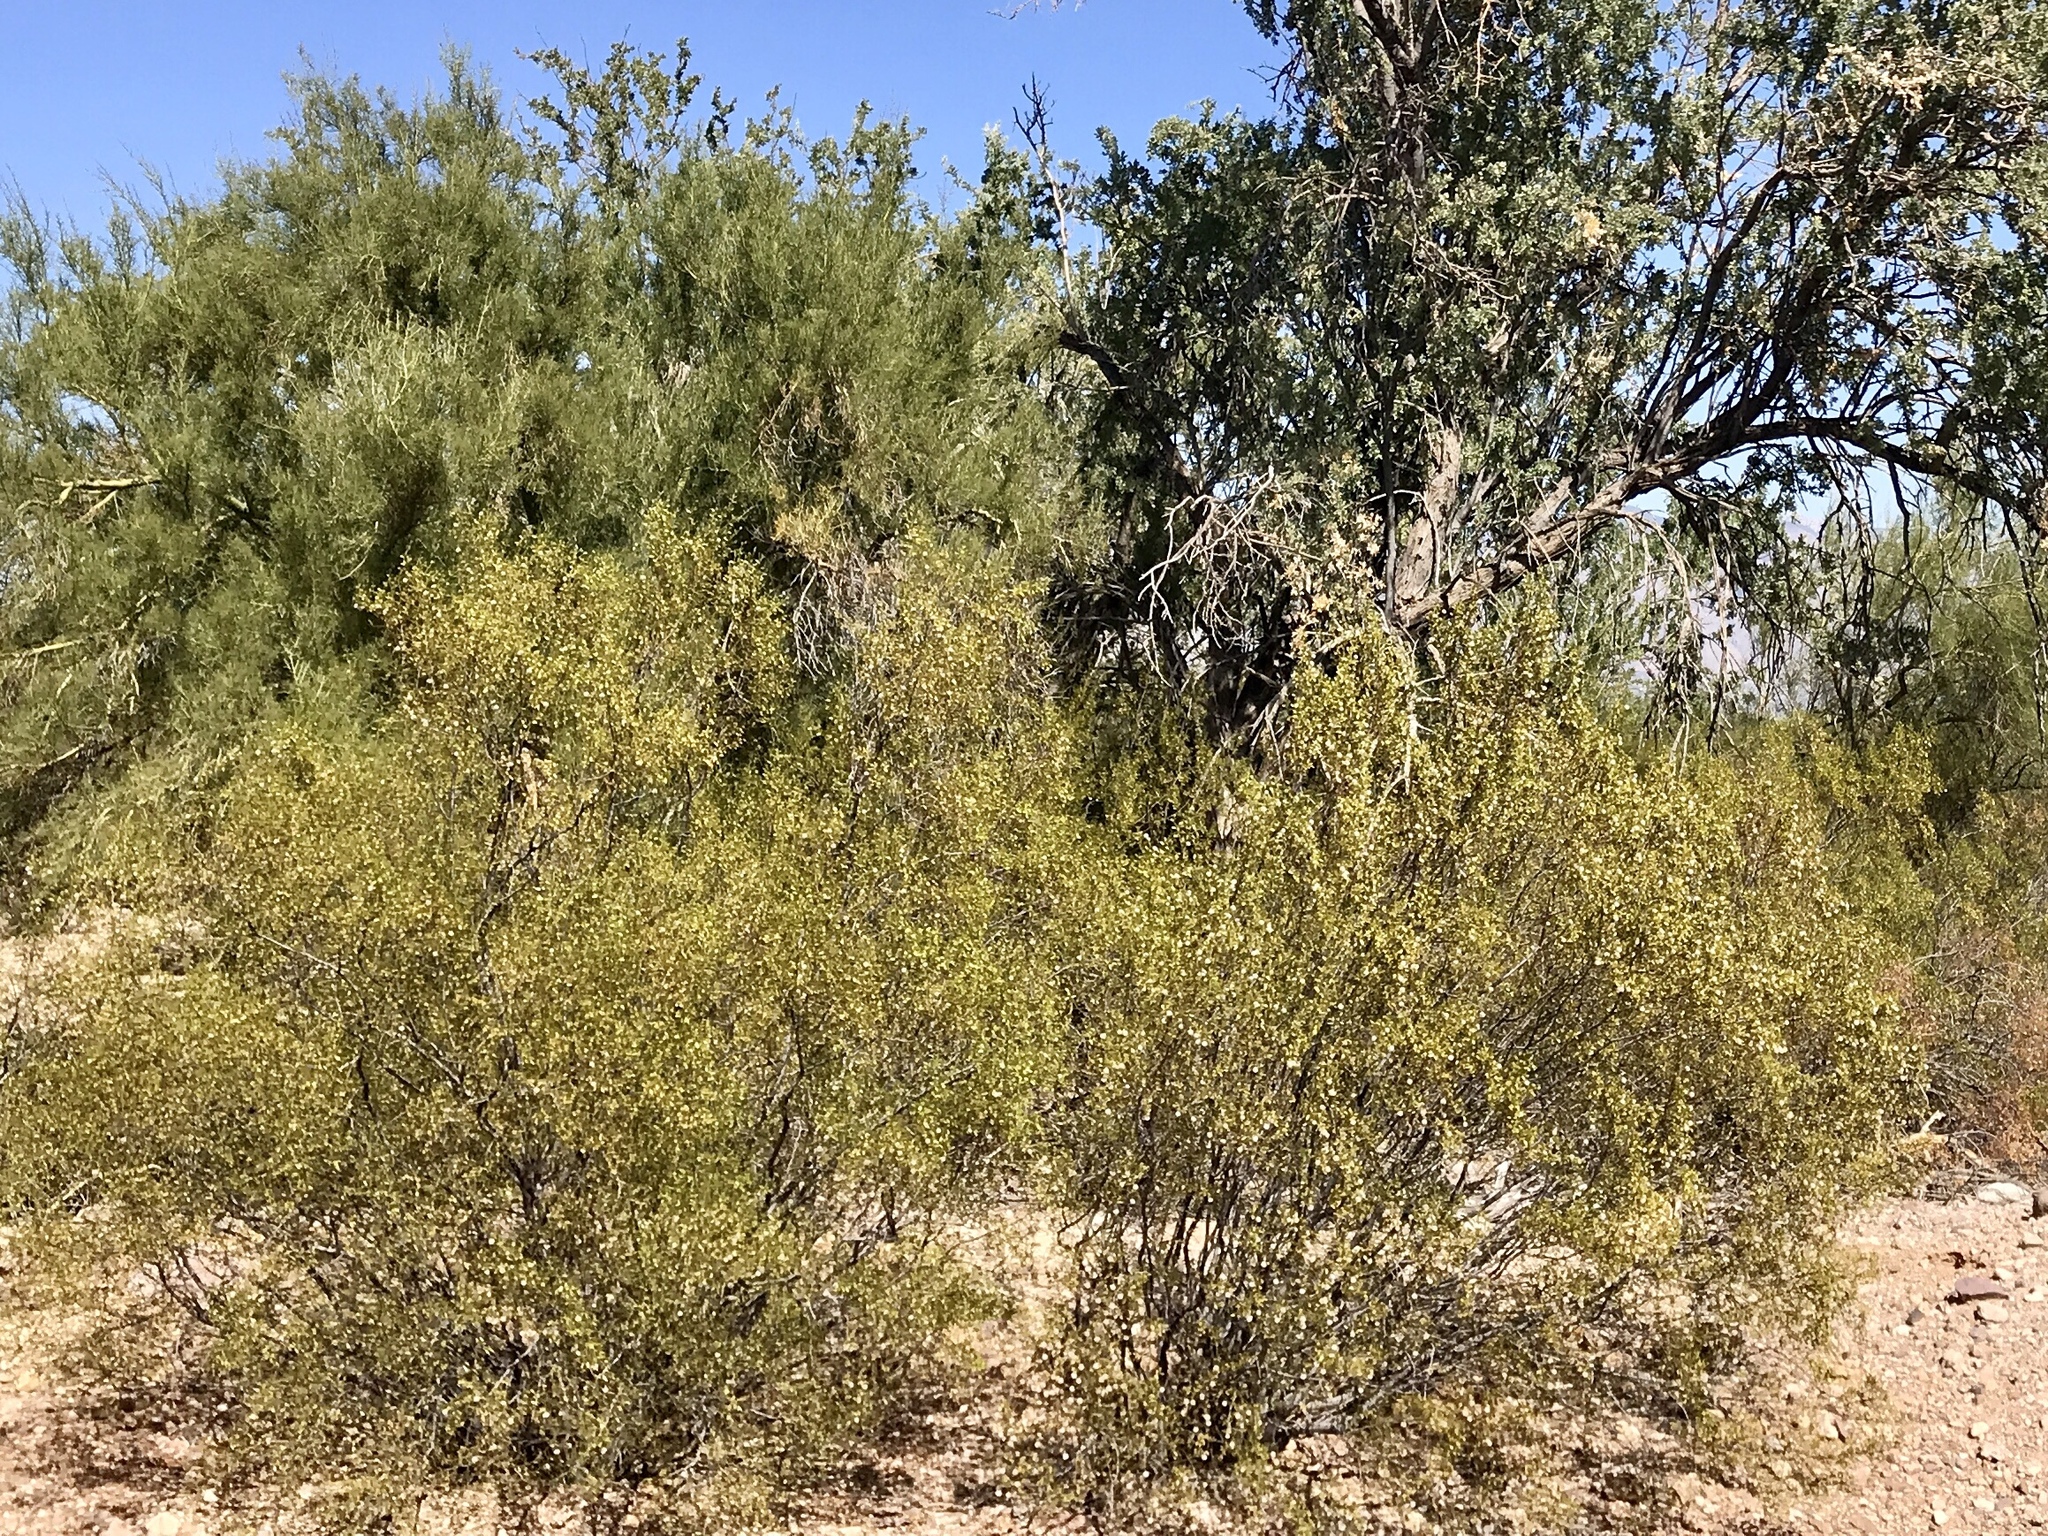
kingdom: Plantae
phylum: Tracheophyta
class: Magnoliopsida
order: Zygophyllales
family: Zygophyllaceae
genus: Larrea
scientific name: Larrea tridentata
